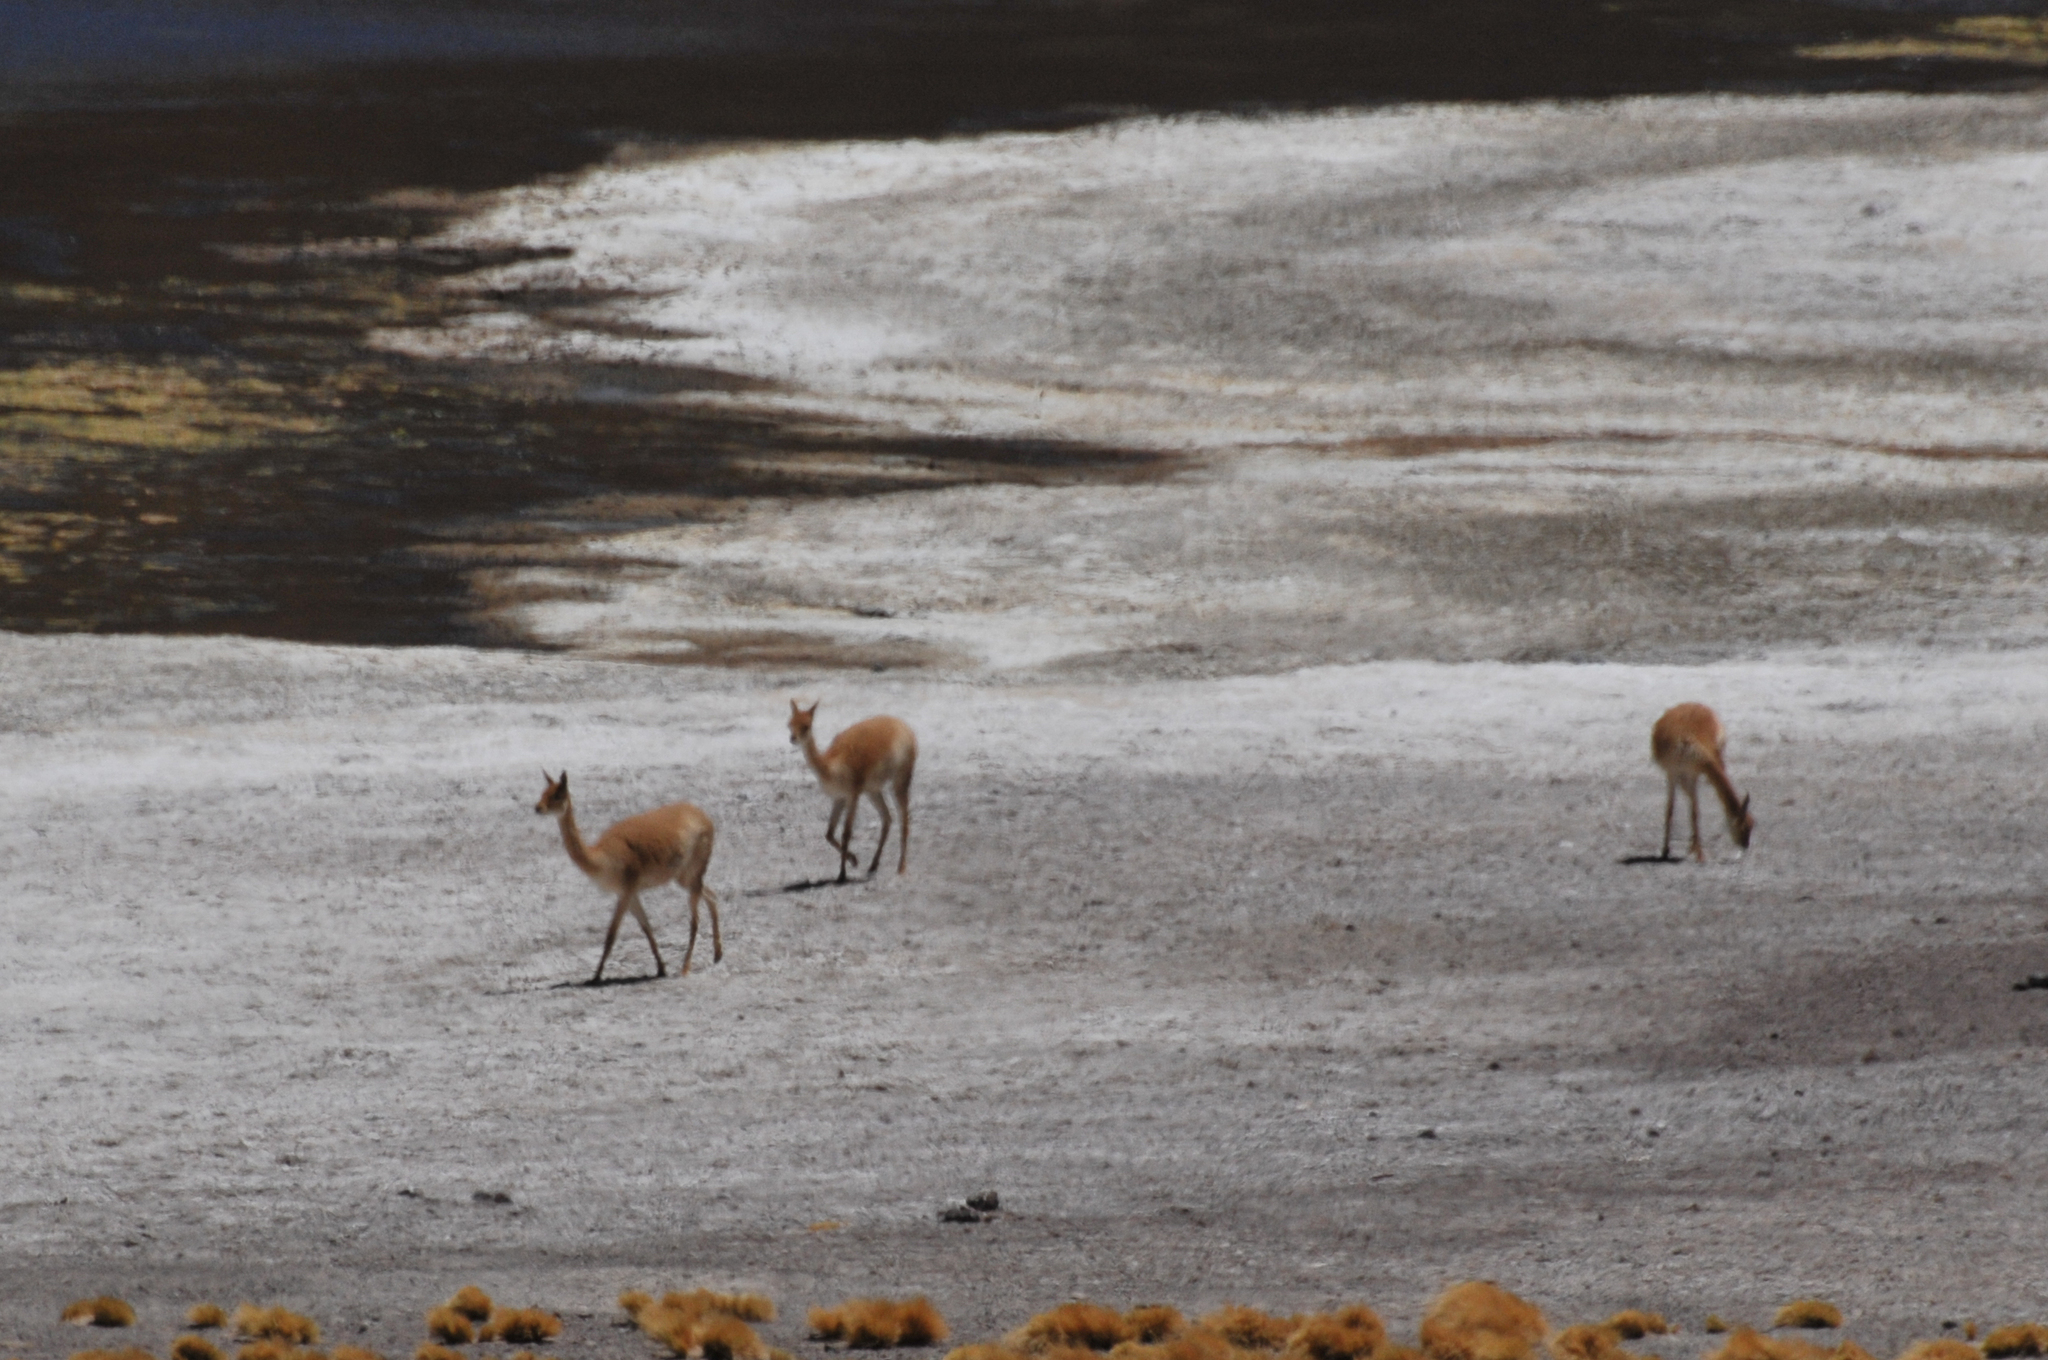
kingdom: Animalia
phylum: Chordata
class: Mammalia
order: Artiodactyla
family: Camelidae
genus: Vicugna
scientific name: Vicugna vicugna
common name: Vicugna
